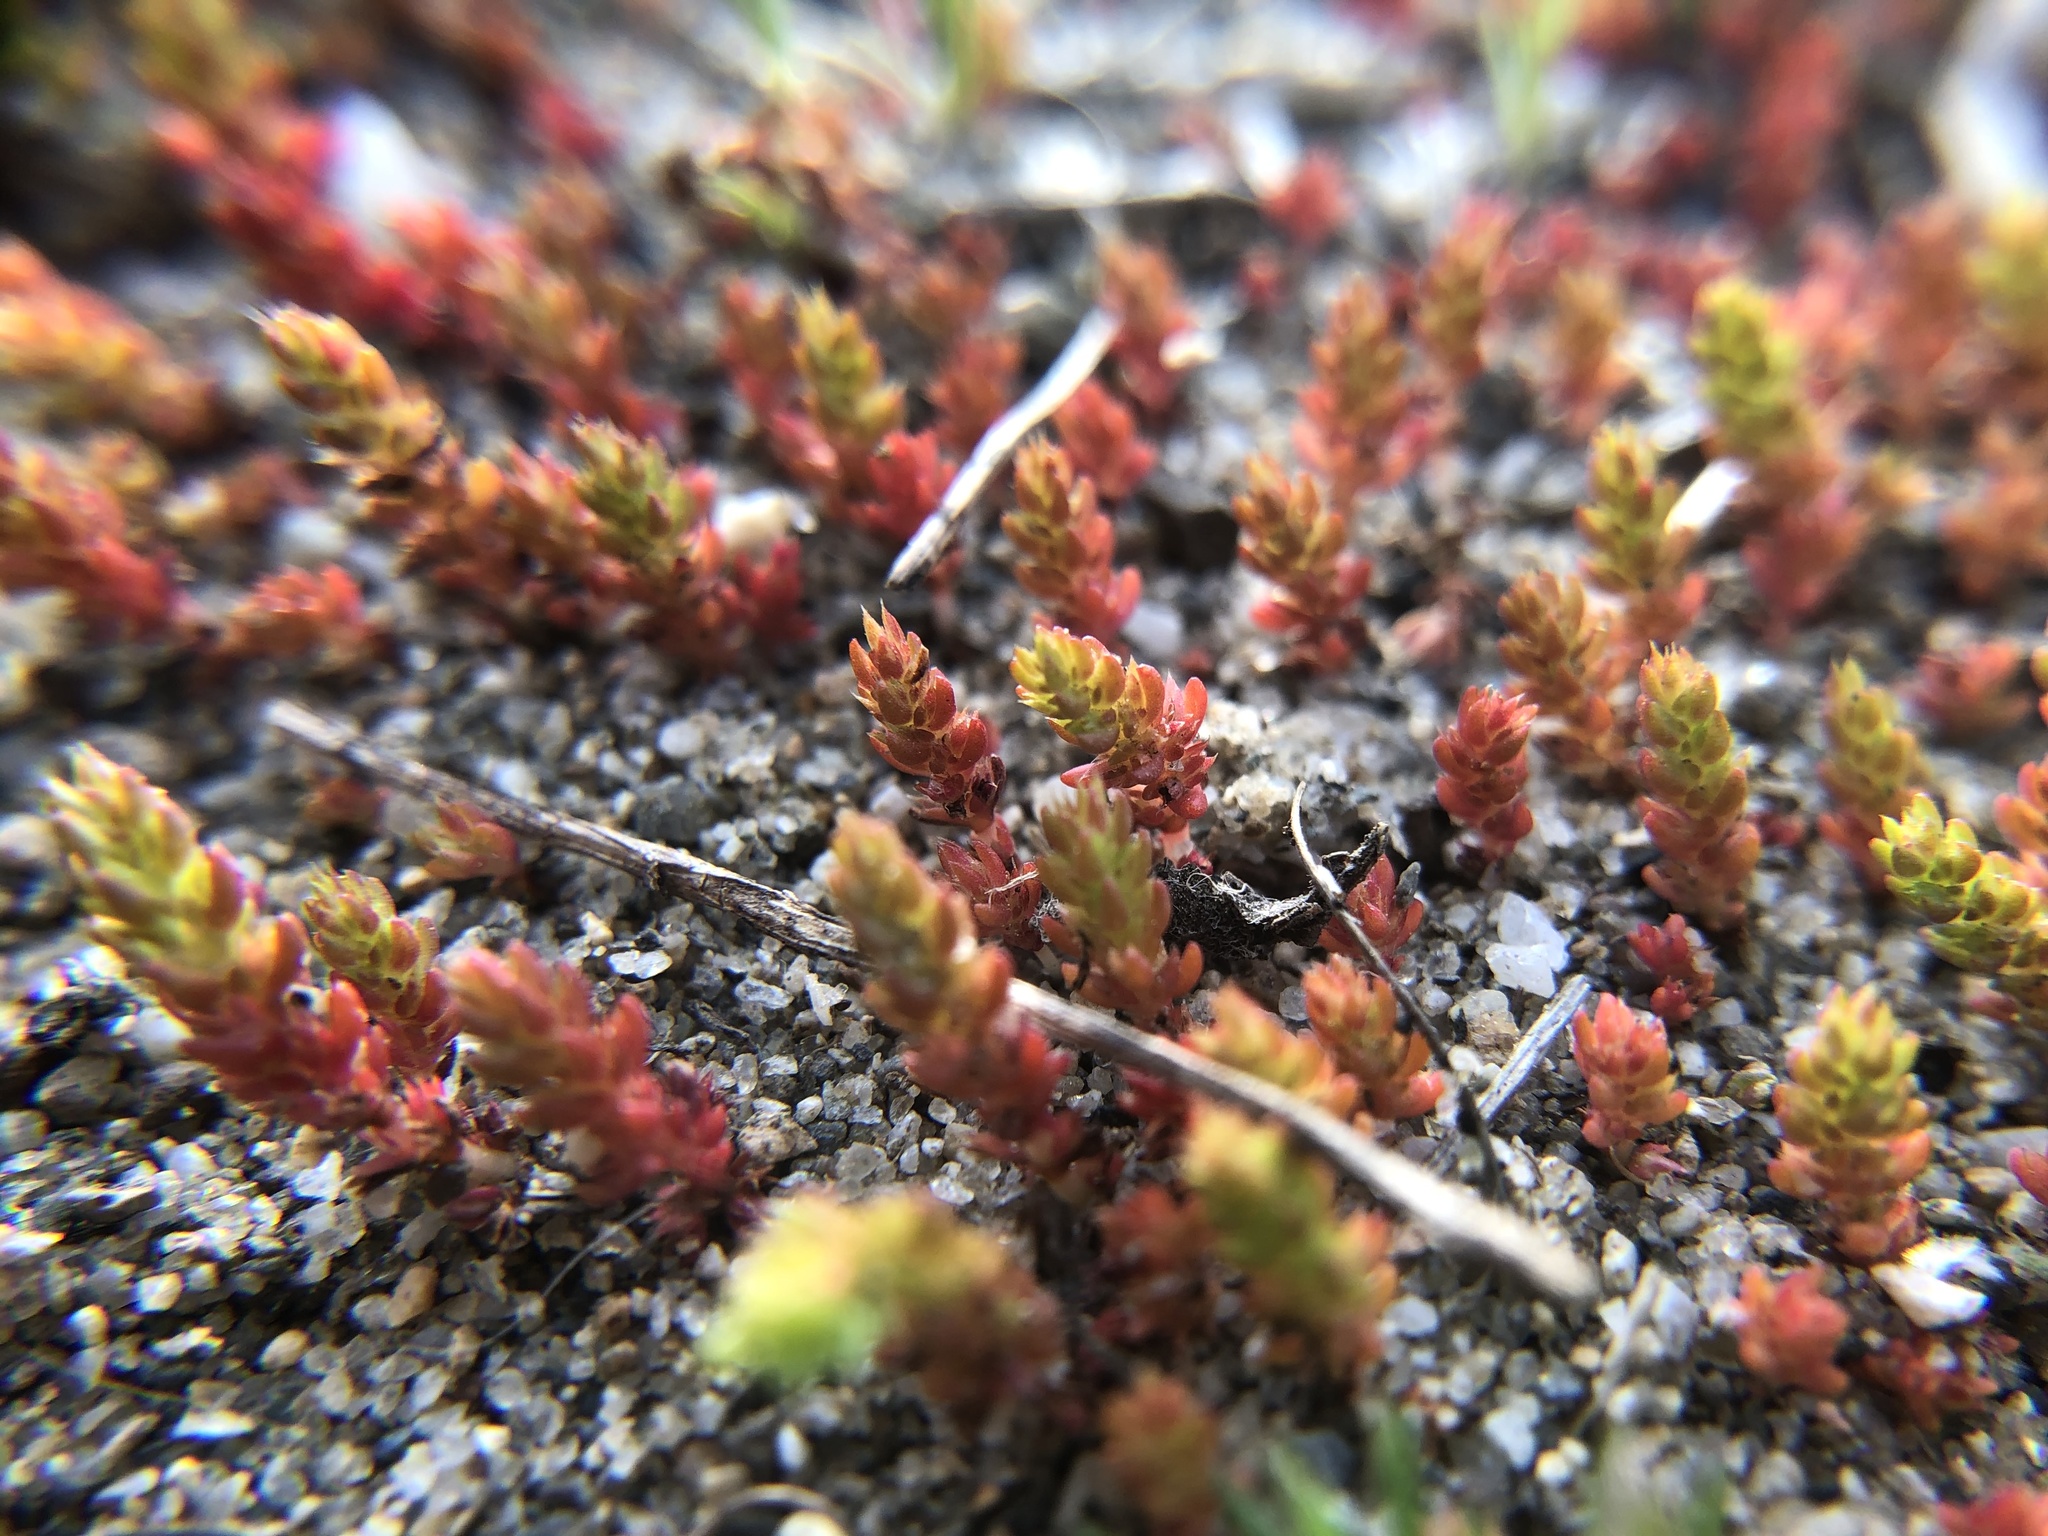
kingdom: Plantae
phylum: Tracheophyta
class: Magnoliopsida
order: Saxifragales
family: Crassulaceae
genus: Crassula
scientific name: Crassula connata
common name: Erect pygmyweed
